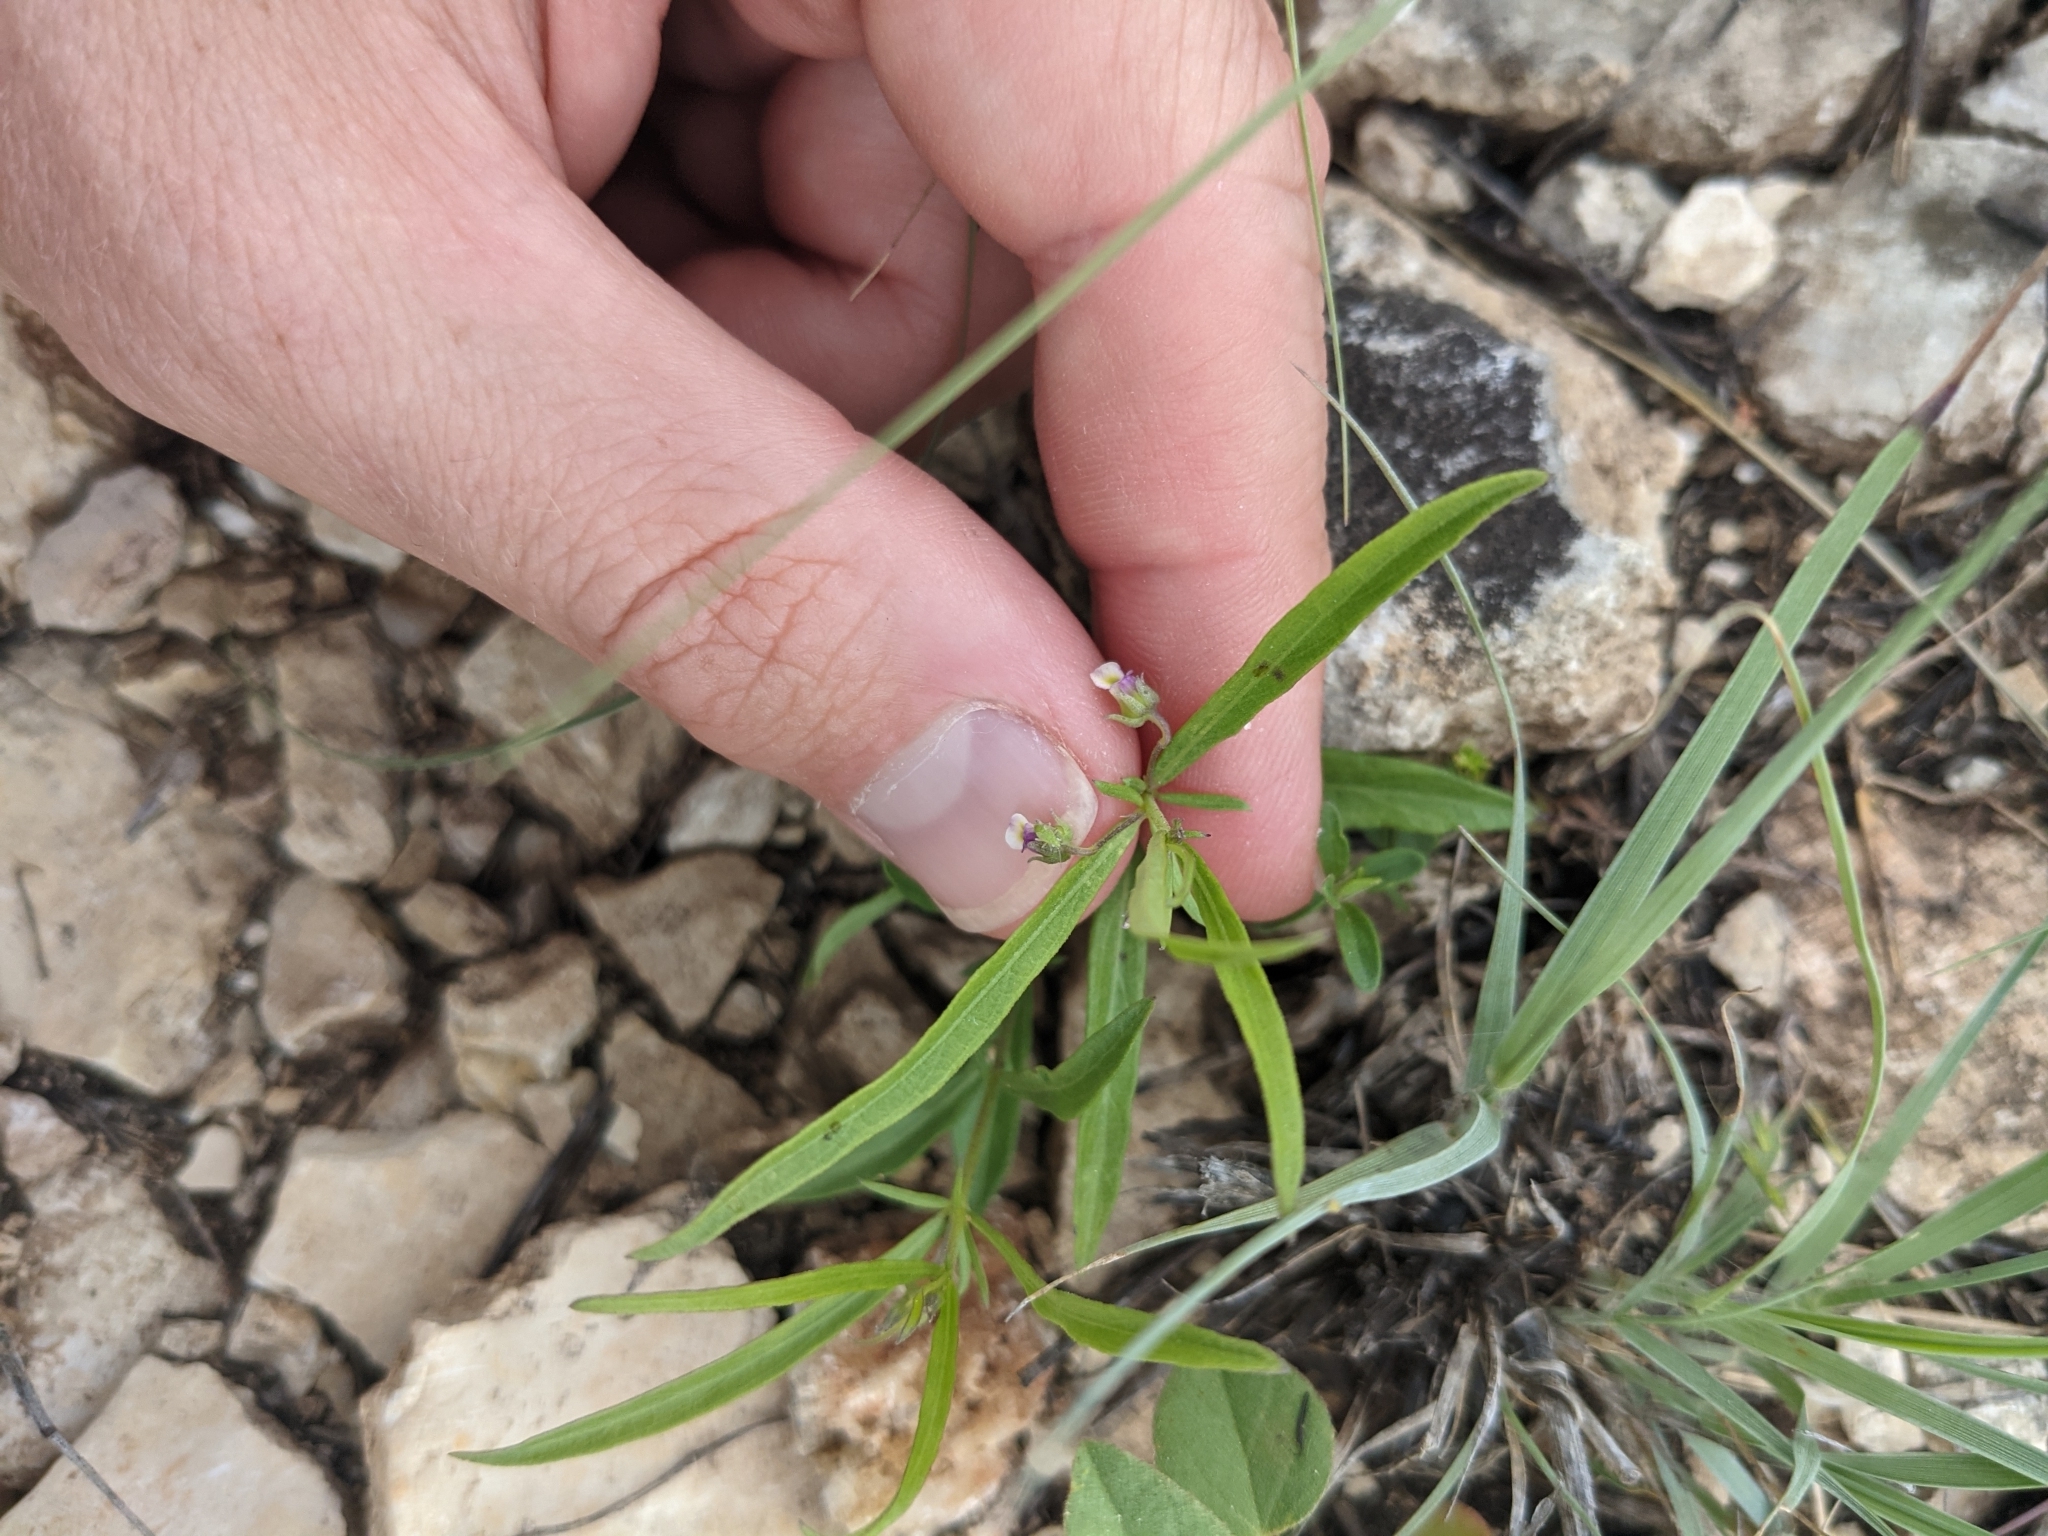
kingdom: Plantae
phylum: Tracheophyta
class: Magnoliopsida
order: Malpighiales
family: Violaceae
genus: Pombalia
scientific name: Pombalia verticillata
